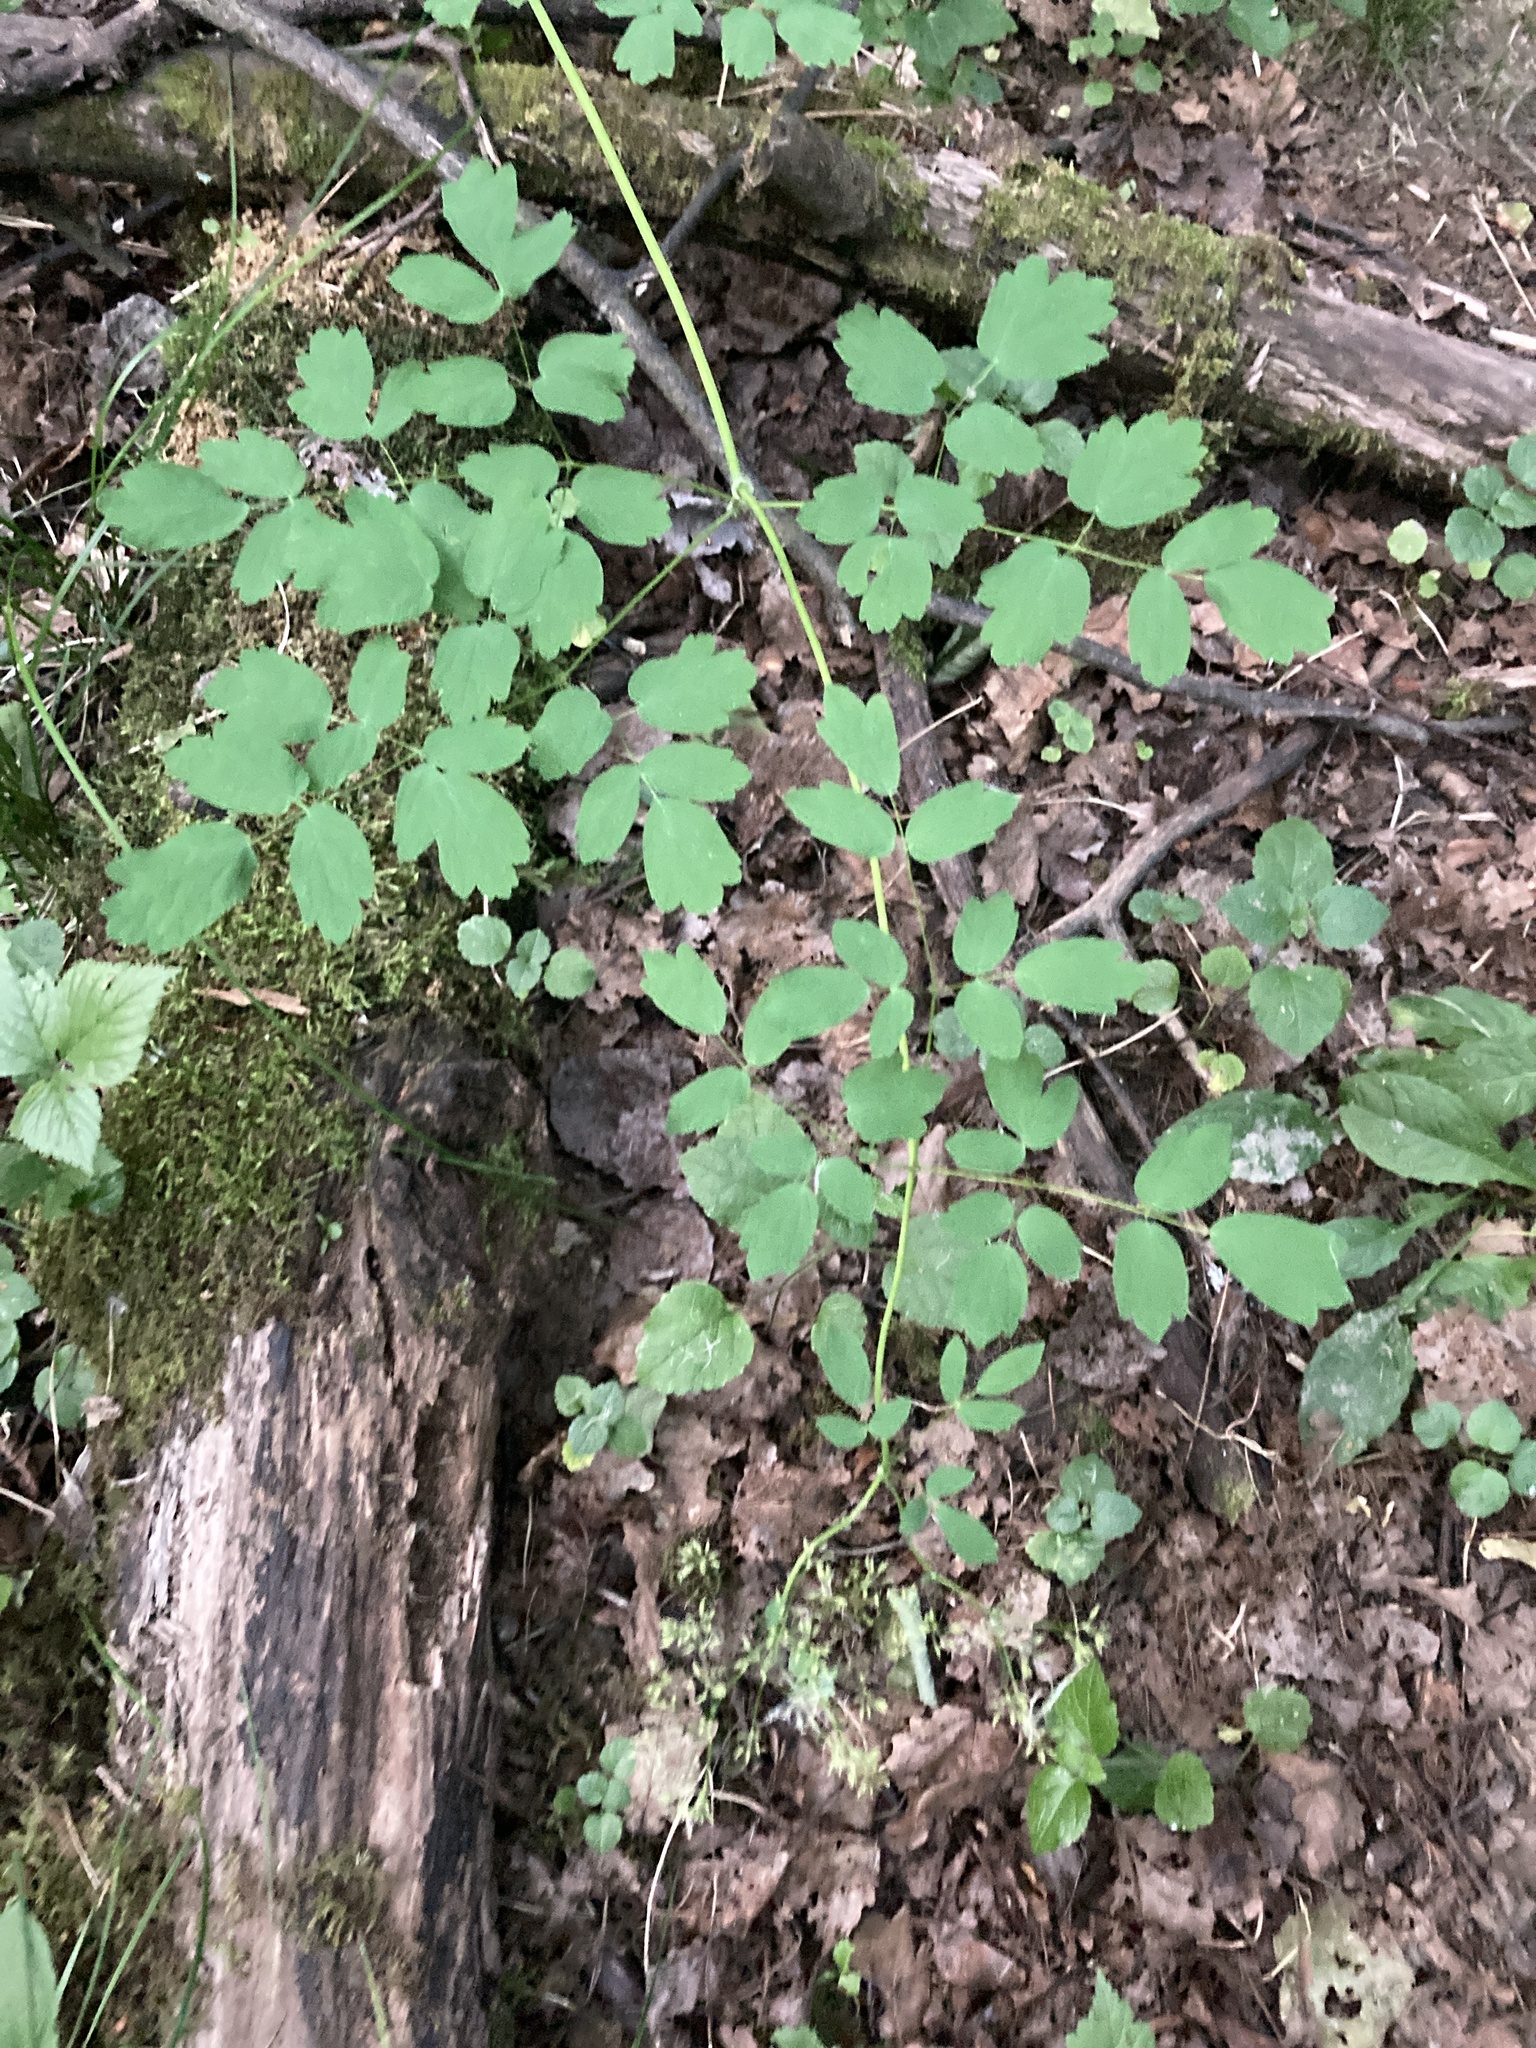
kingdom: Plantae
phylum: Tracheophyta
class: Magnoliopsida
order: Ranunculales
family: Ranunculaceae
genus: Thalictrum
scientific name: Thalictrum aquilegiifolium
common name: French meadow-rue
